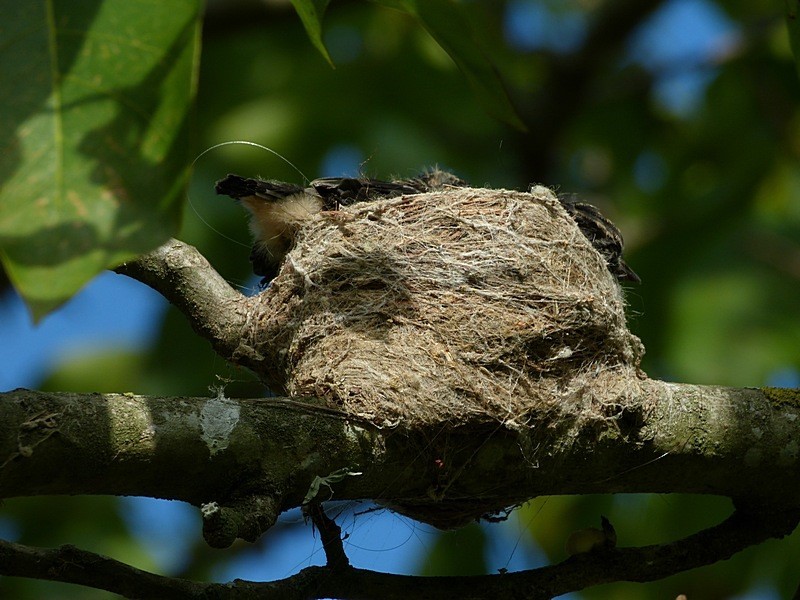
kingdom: Animalia
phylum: Chordata
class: Aves
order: Passeriformes
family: Rhipiduridae
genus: Rhipidura
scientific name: Rhipidura leucophrys
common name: Willie wagtail
